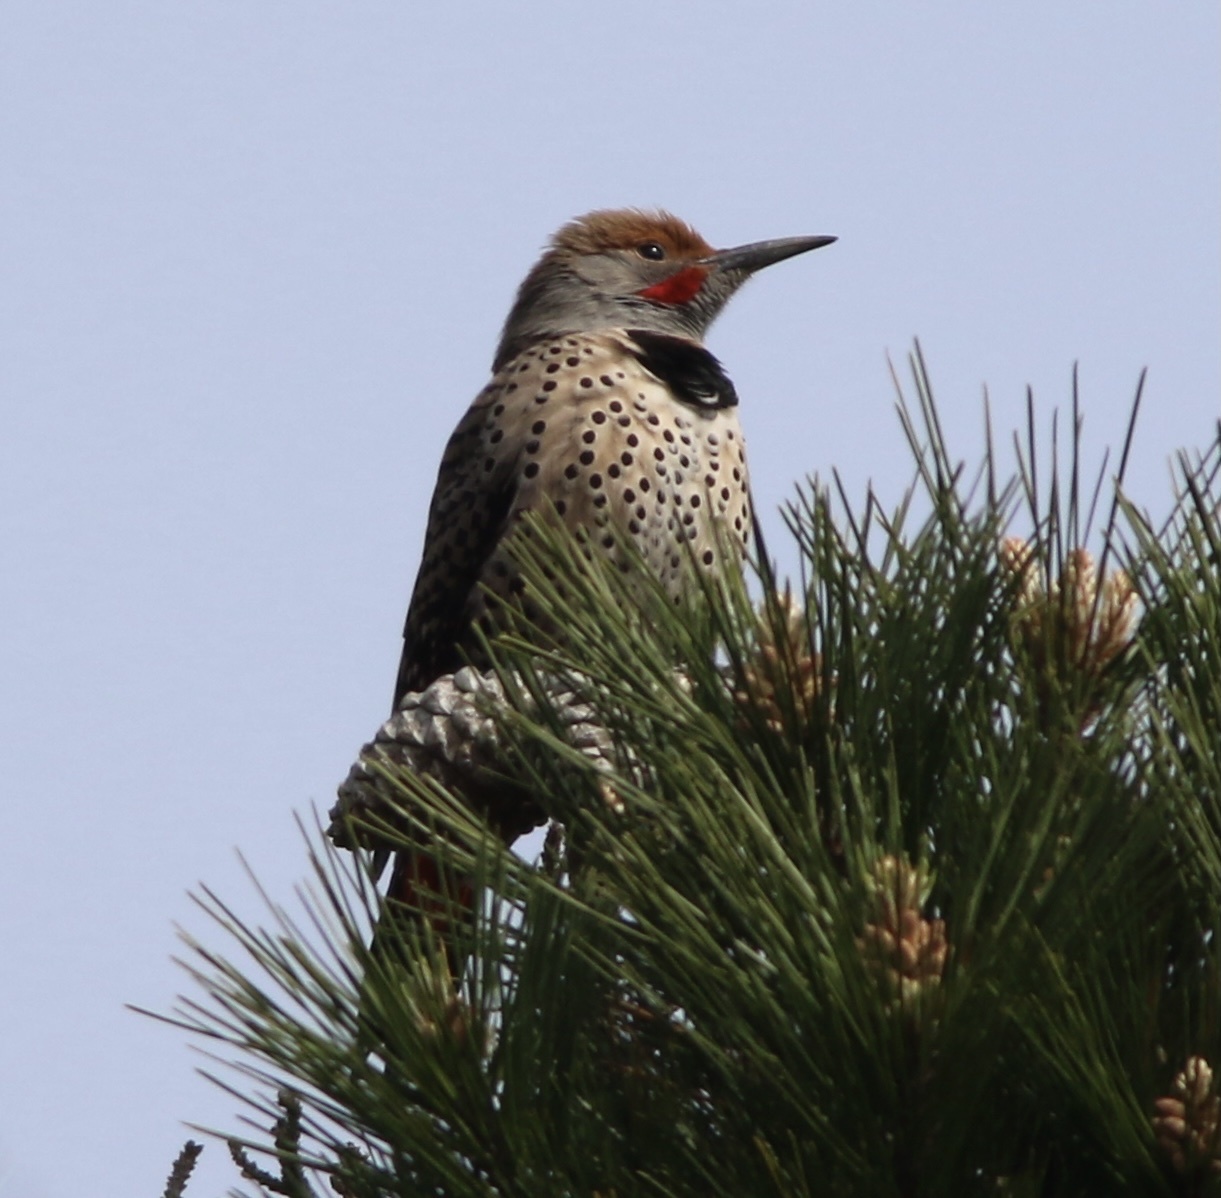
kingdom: Animalia
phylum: Chordata
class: Aves
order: Piciformes
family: Picidae
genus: Colaptes
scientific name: Colaptes auratus
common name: Northern flicker
